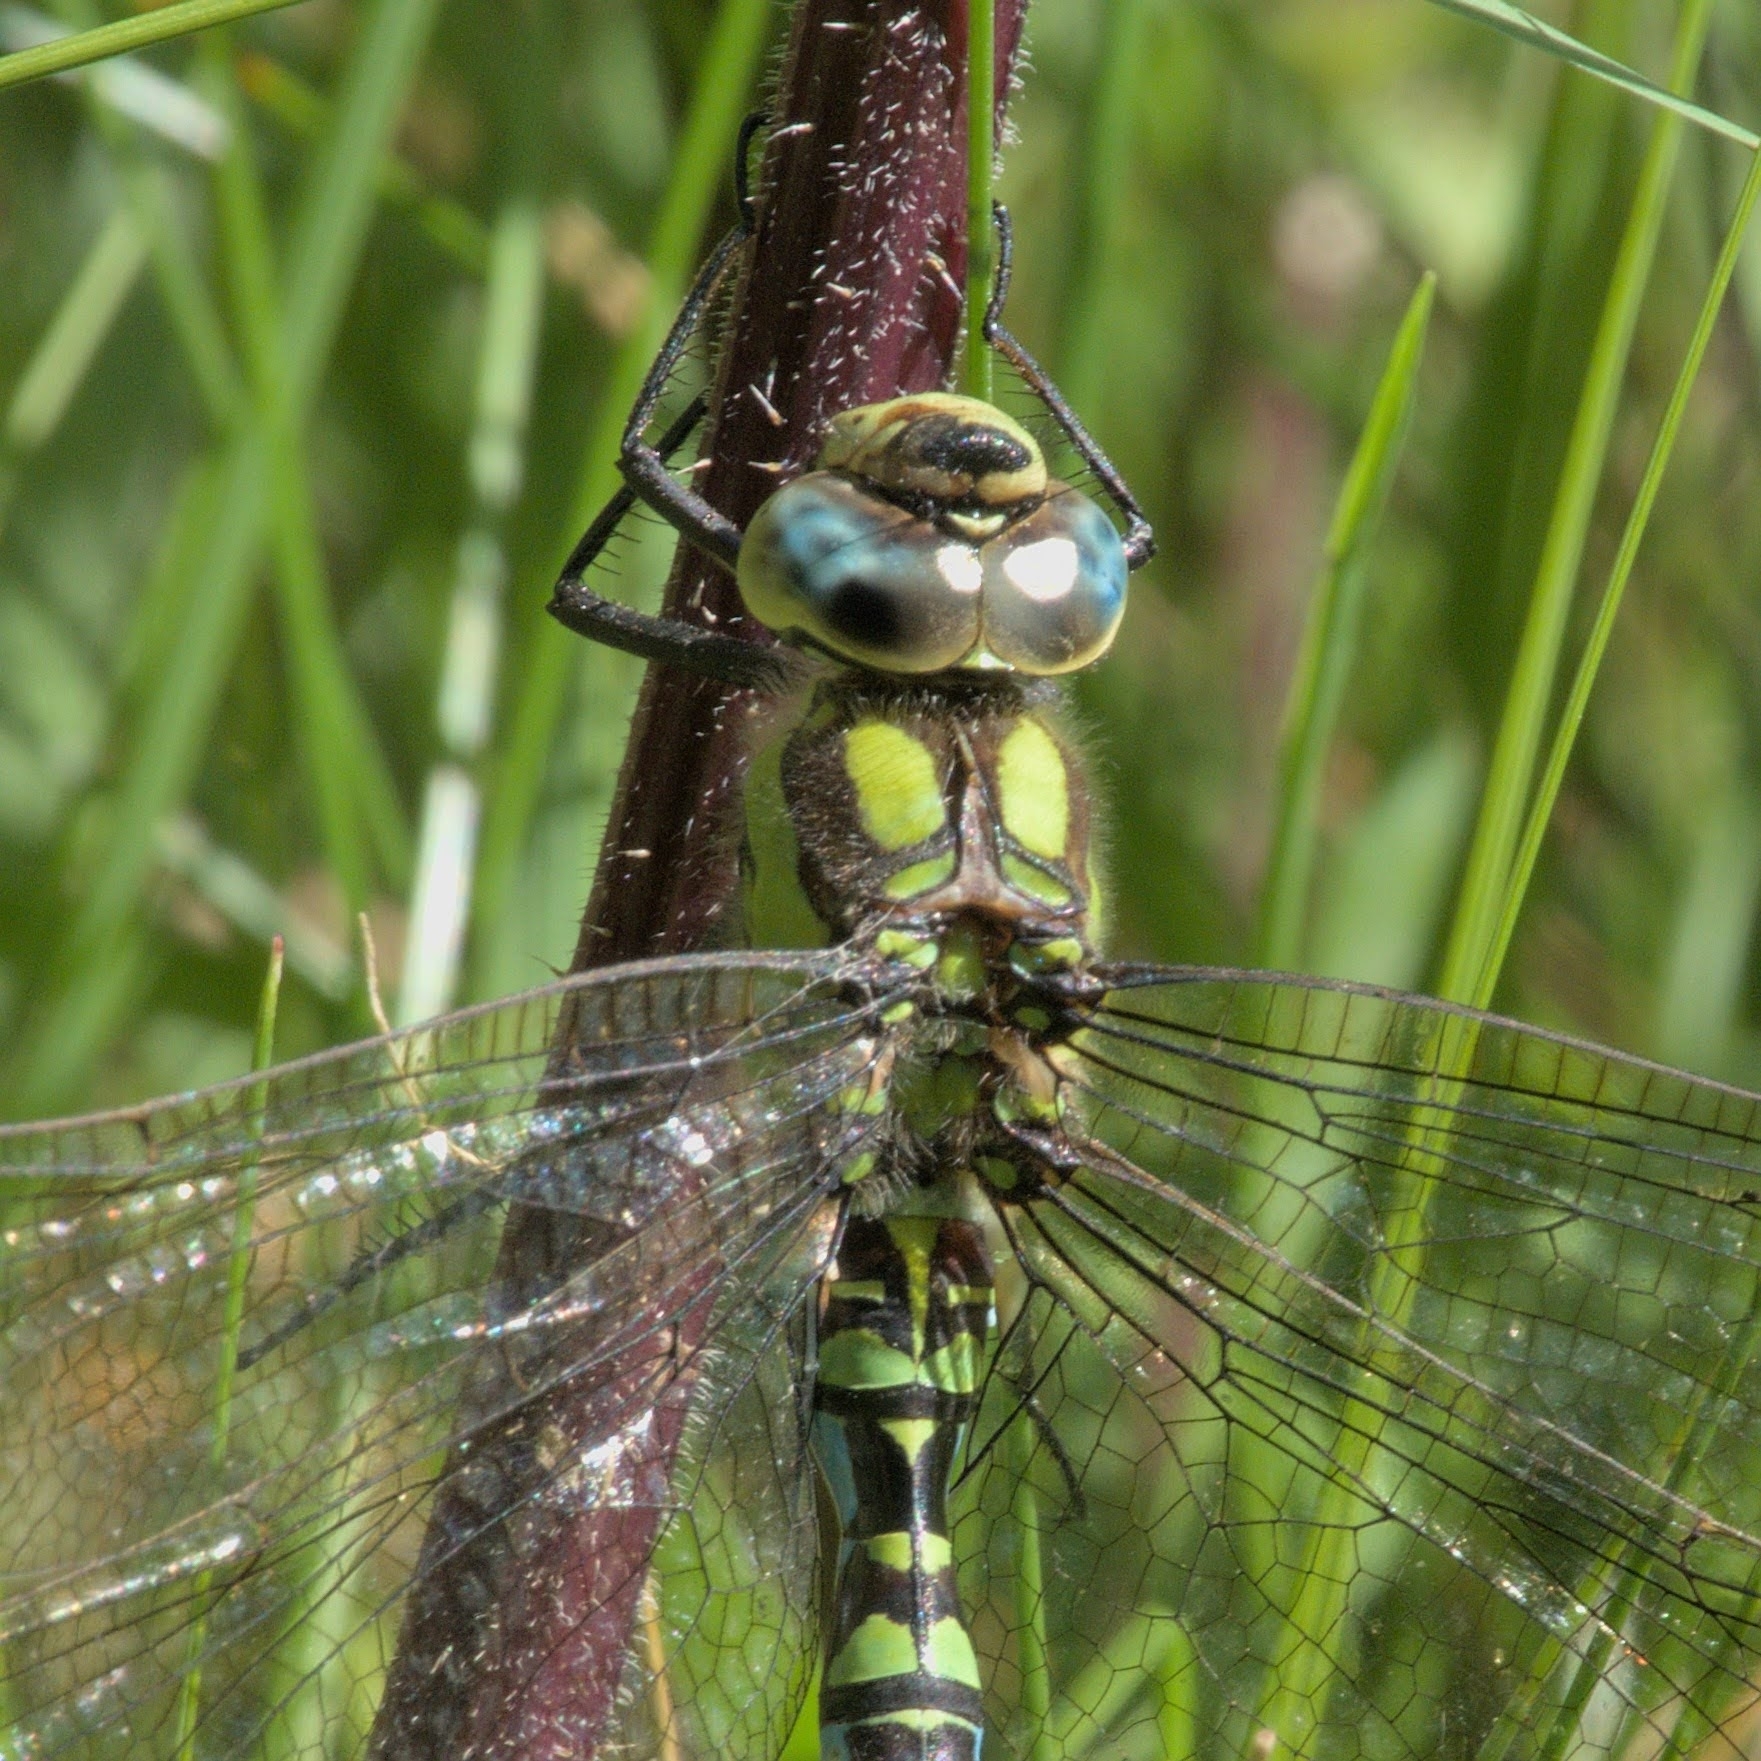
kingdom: Animalia
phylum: Arthropoda
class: Insecta
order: Odonata
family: Aeshnidae
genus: Aeshna
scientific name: Aeshna cyanea
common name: Southern hawker
